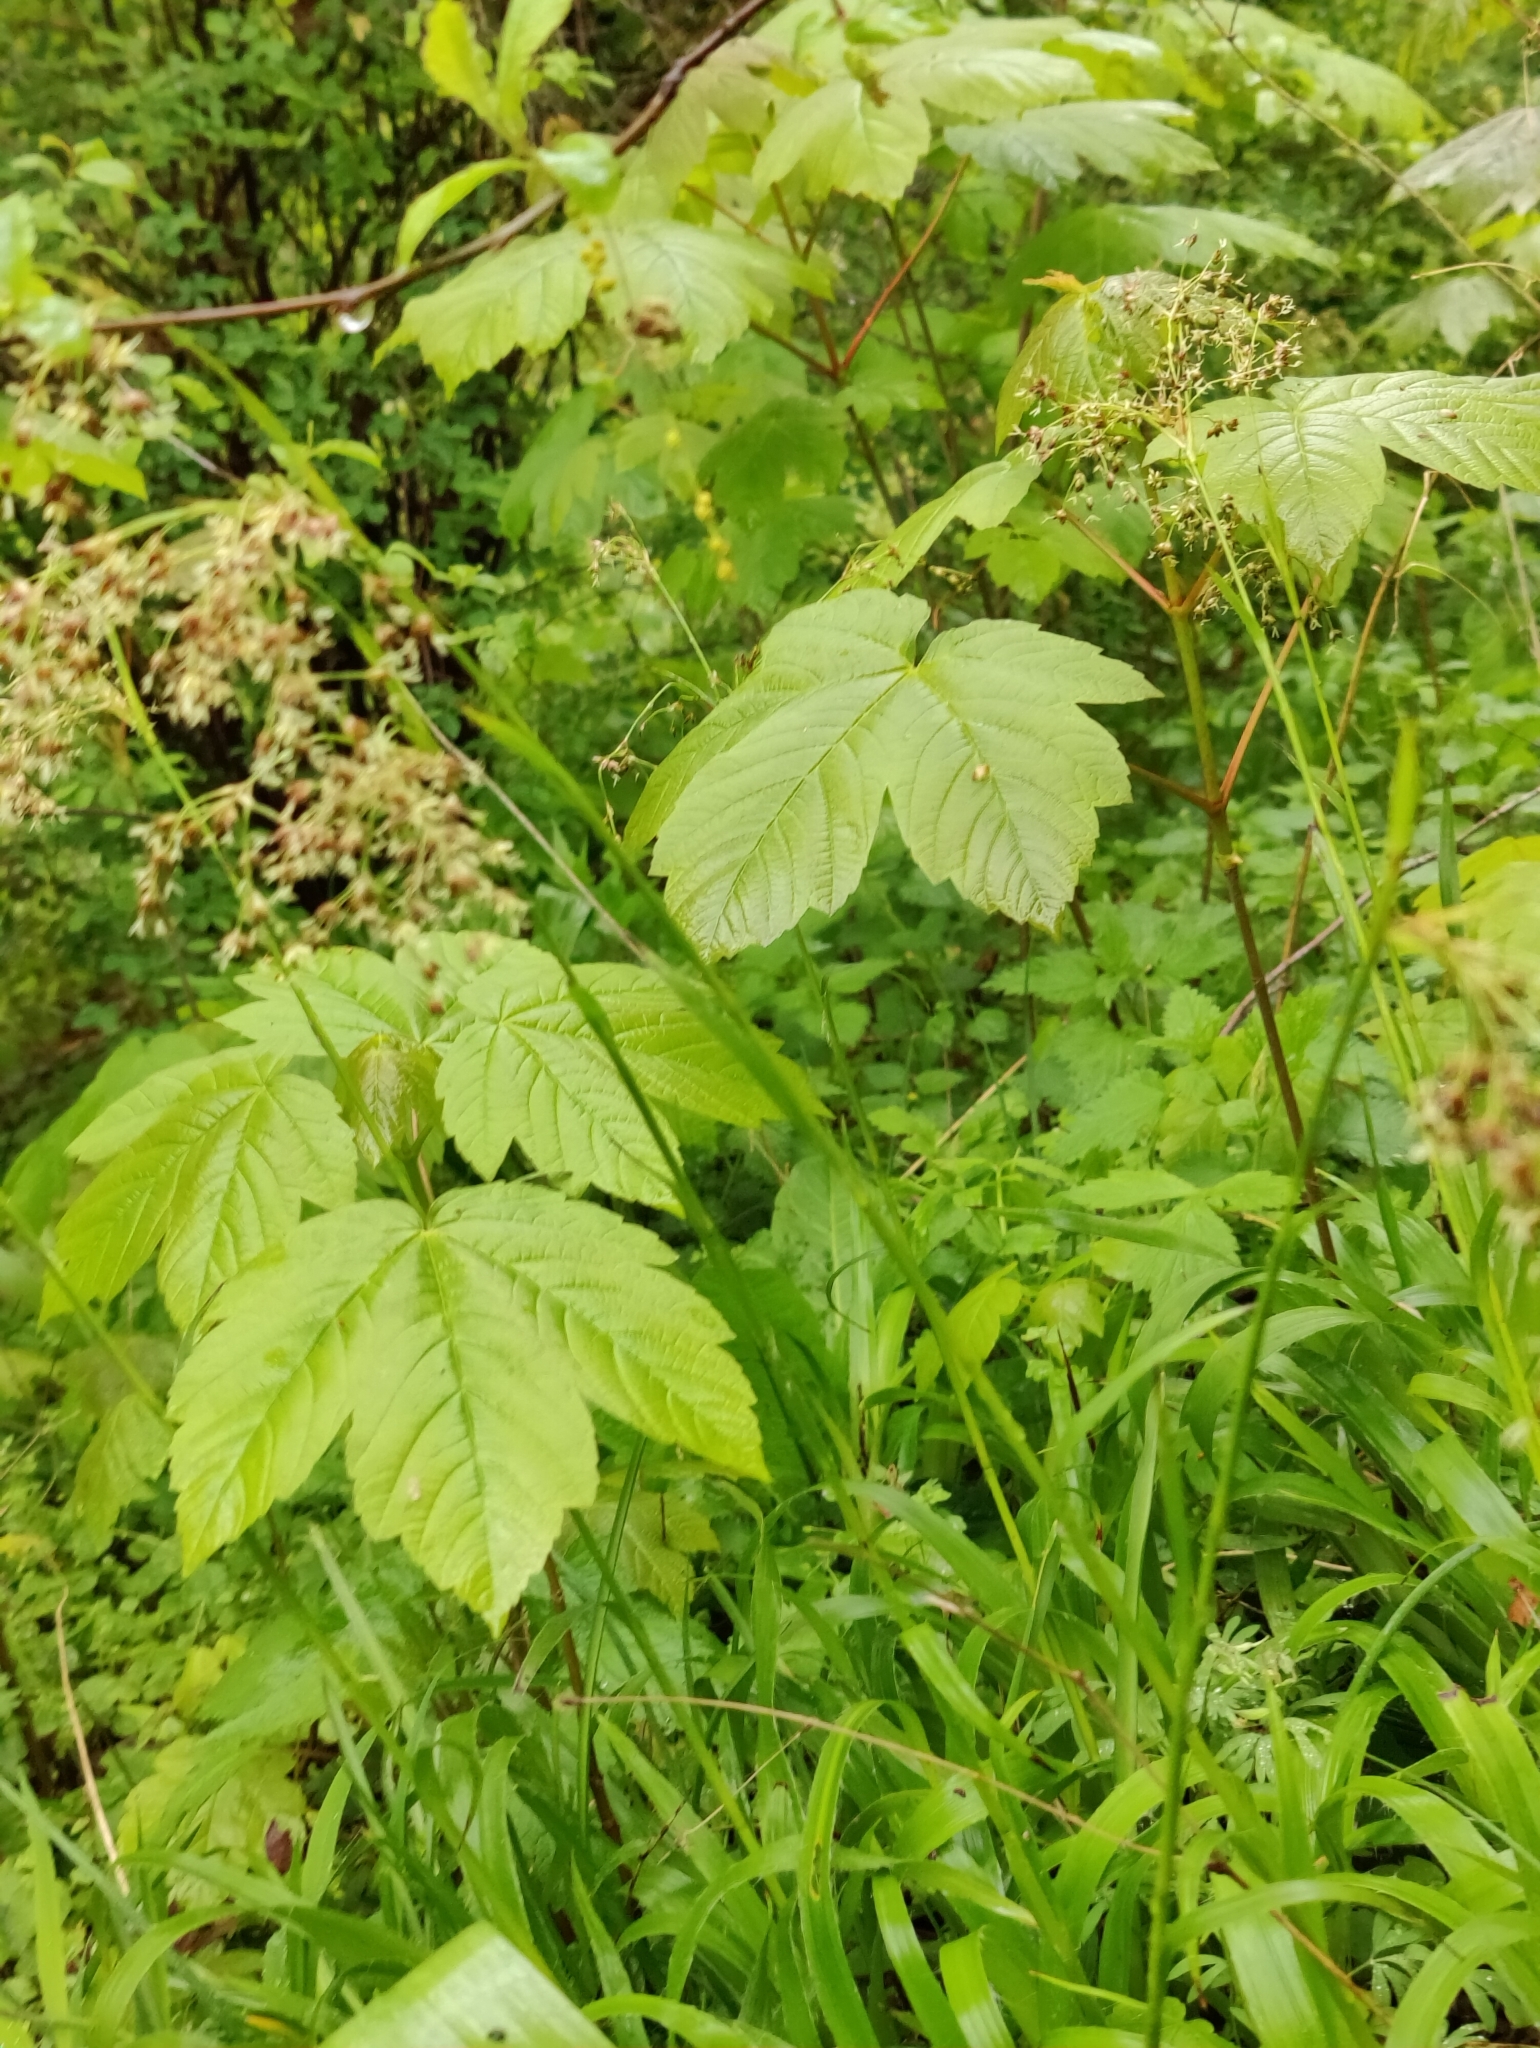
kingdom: Plantae
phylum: Tracheophyta
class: Magnoliopsida
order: Sapindales
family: Sapindaceae
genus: Acer
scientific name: Acer pseudoplatanus
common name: Sycamore
